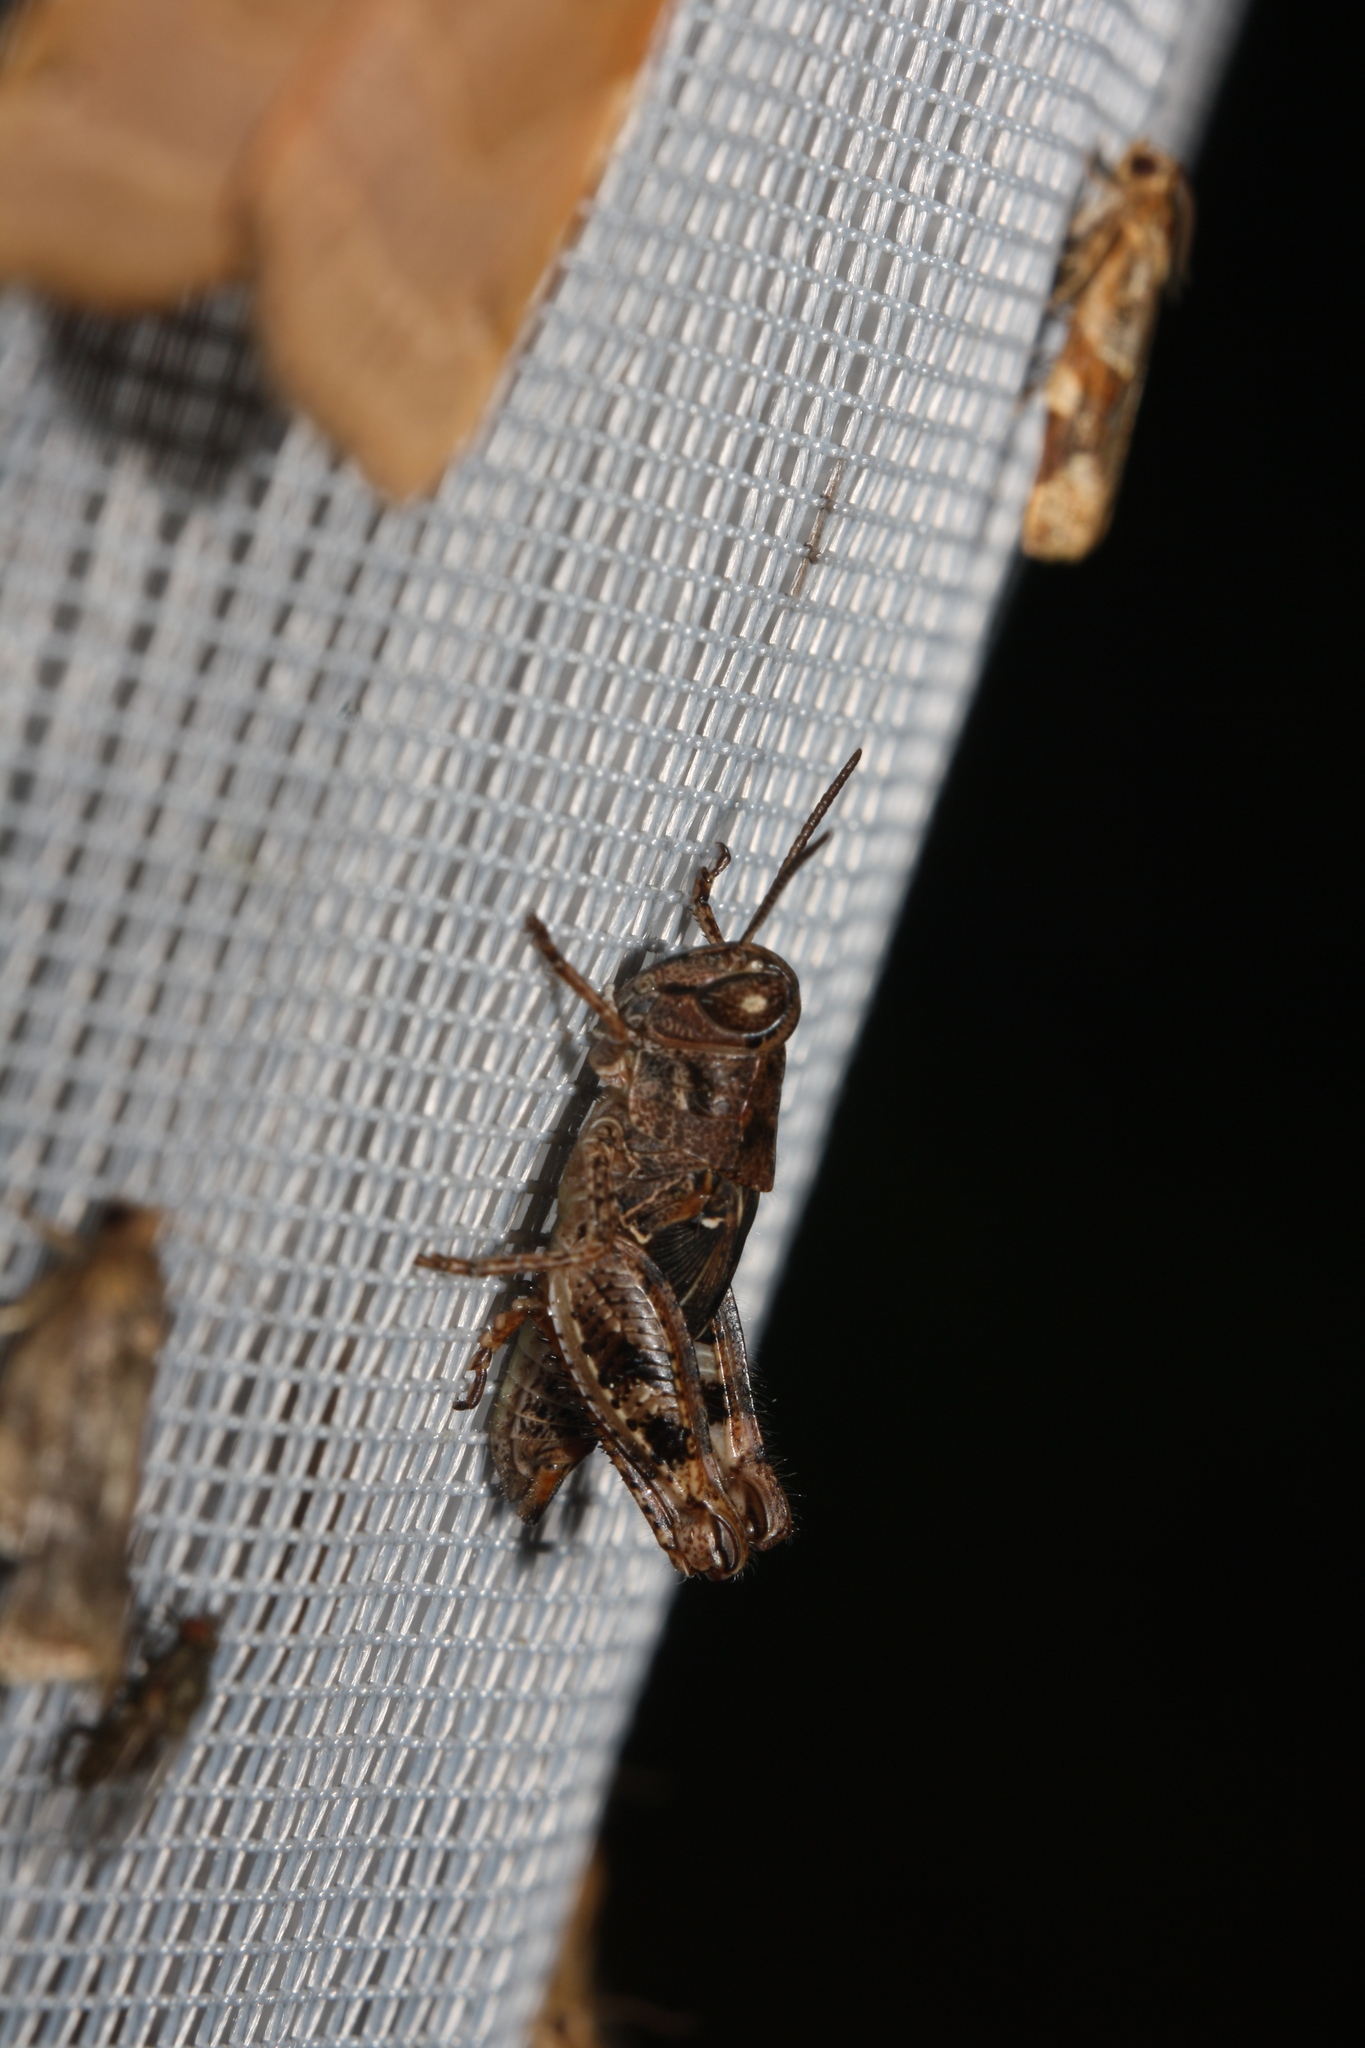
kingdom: Animalia
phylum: Arthropoda
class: Insecta
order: Orthoptera
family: Acrididae
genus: Calliptamus
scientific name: Calliptamus italicus
